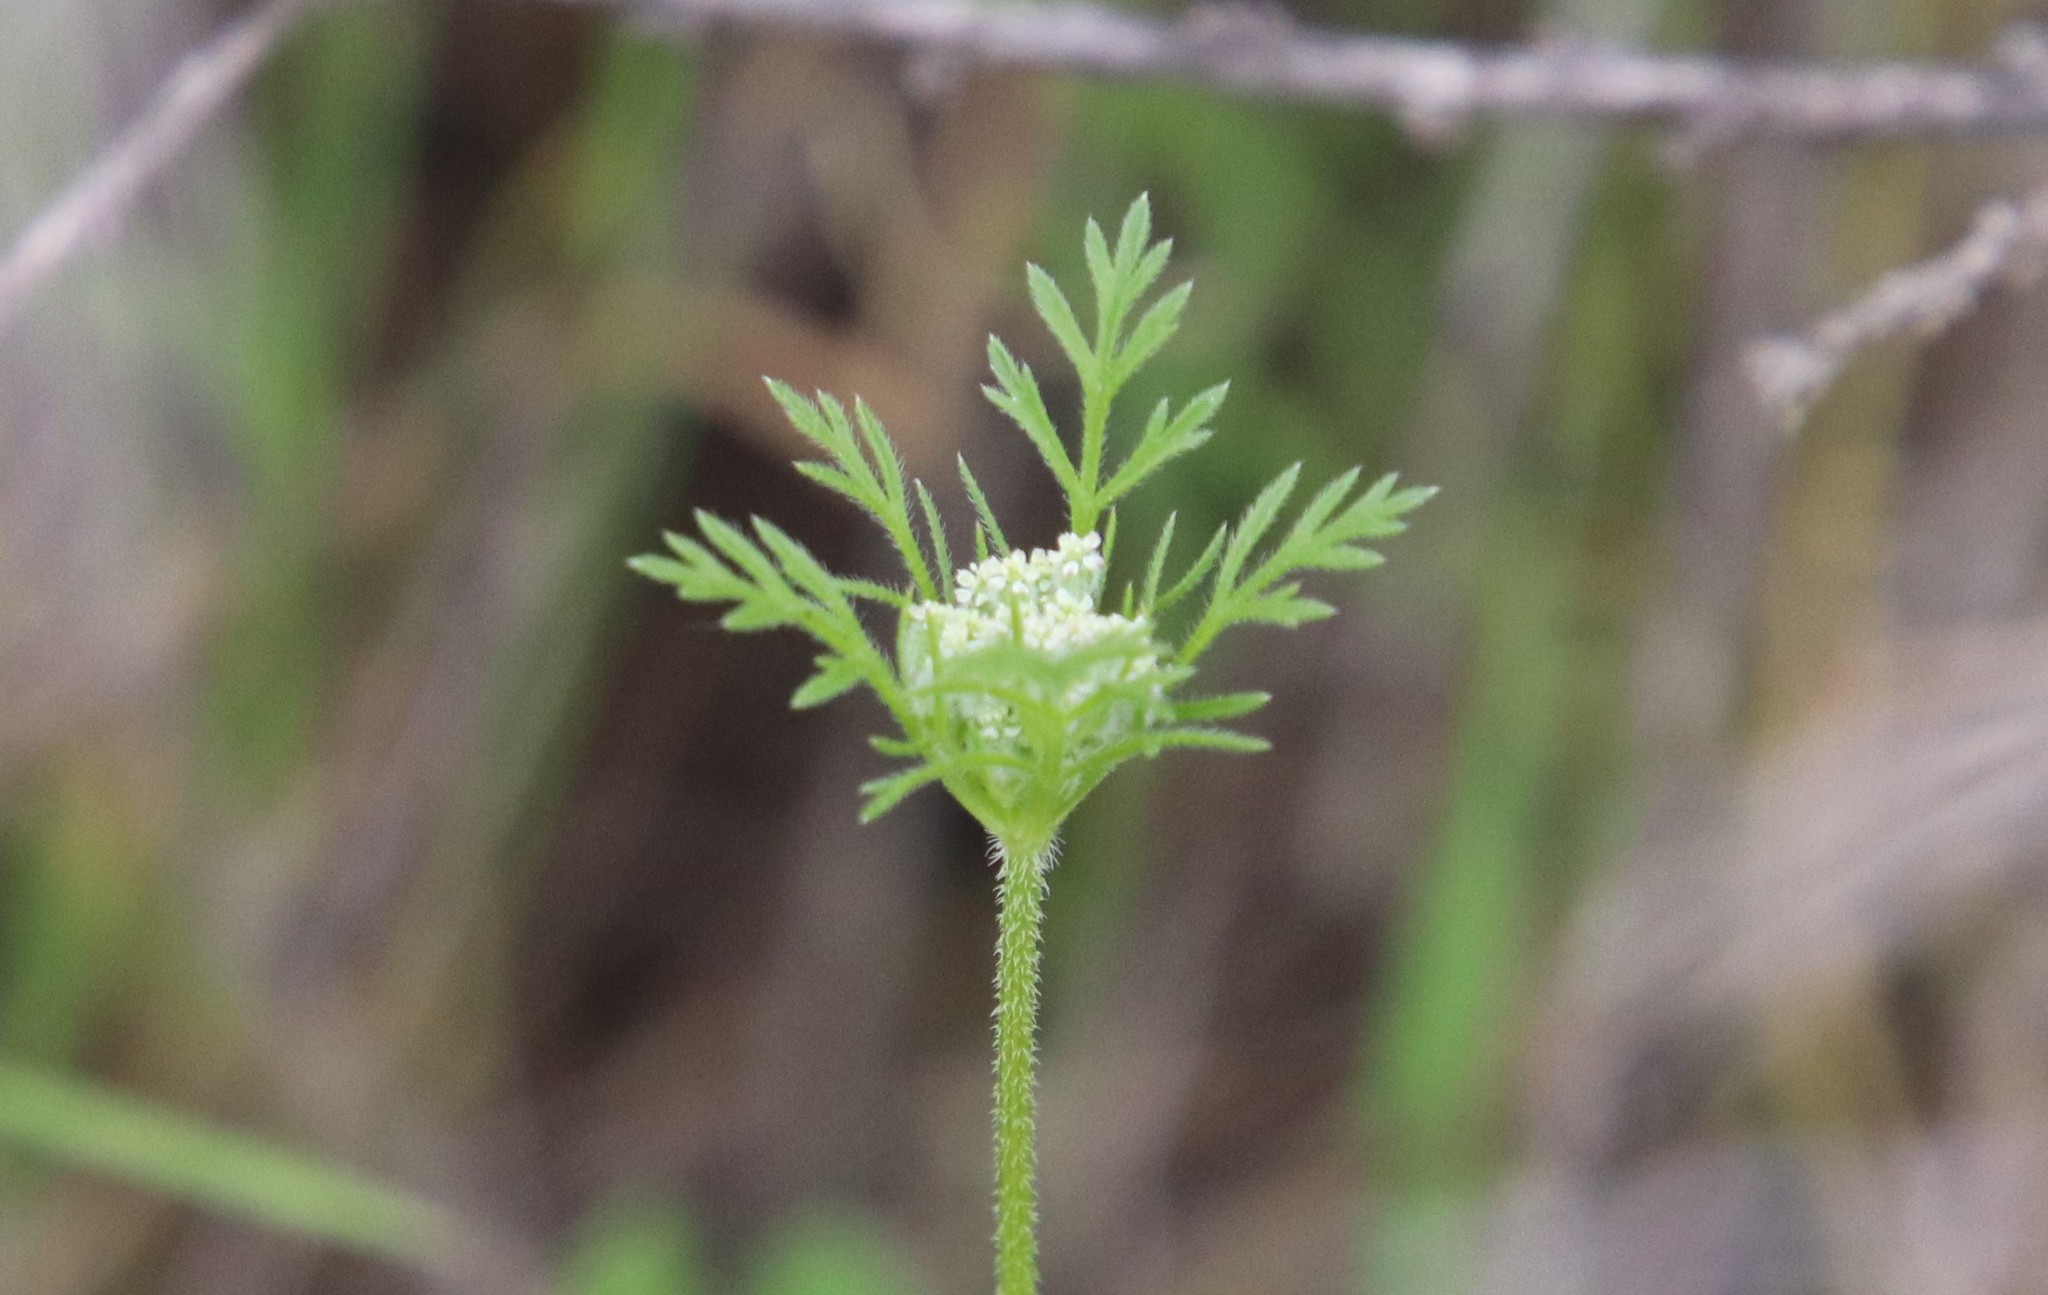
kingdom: Plantae
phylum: Tracheophyta
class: Magnoliopsida
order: Apiales
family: Apiaceae
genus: Daucus
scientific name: Daucus pusillus
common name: Southwest wild carrot
